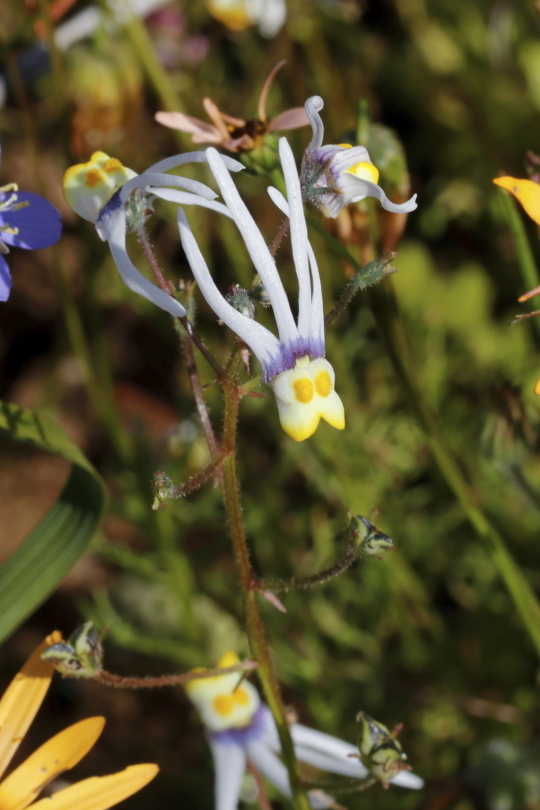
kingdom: Plantae
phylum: Tracheophyta
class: Magnoliopsida
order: Lamiales
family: Scrophulariaceae
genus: Nemesia
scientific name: Nemesia cheiranthus
